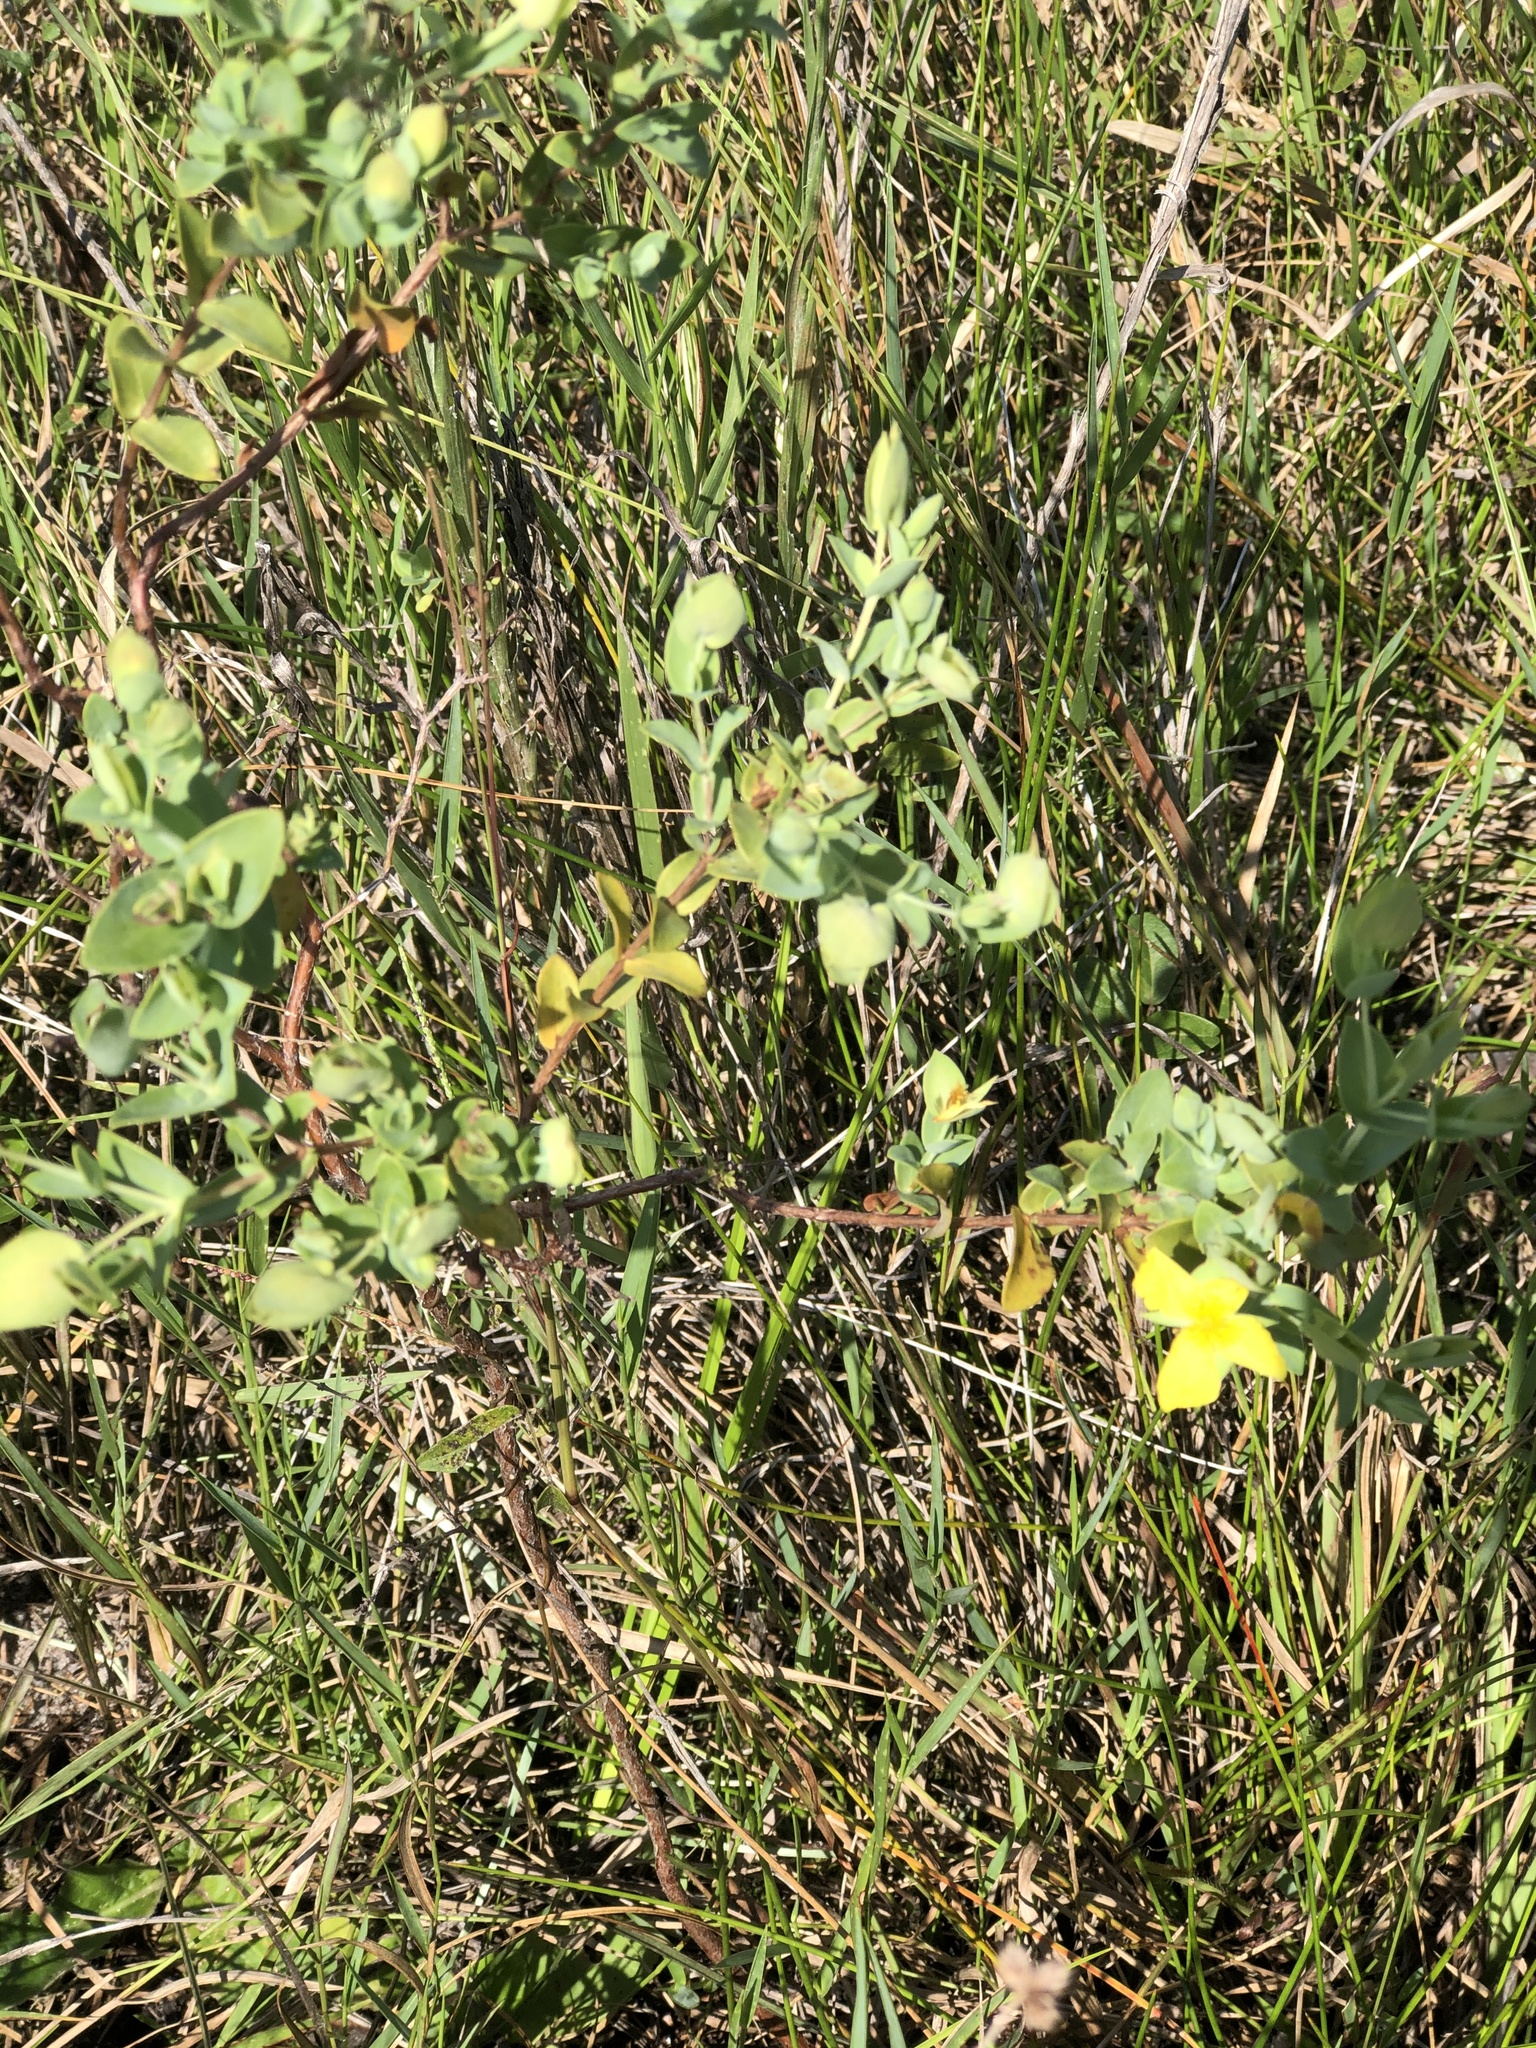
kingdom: Plantae
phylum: Tracheophyta
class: Magnoliopsida
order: Malpighiales
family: Hypericaceae
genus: Hypericum
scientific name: Hypericum tetrapetalum
